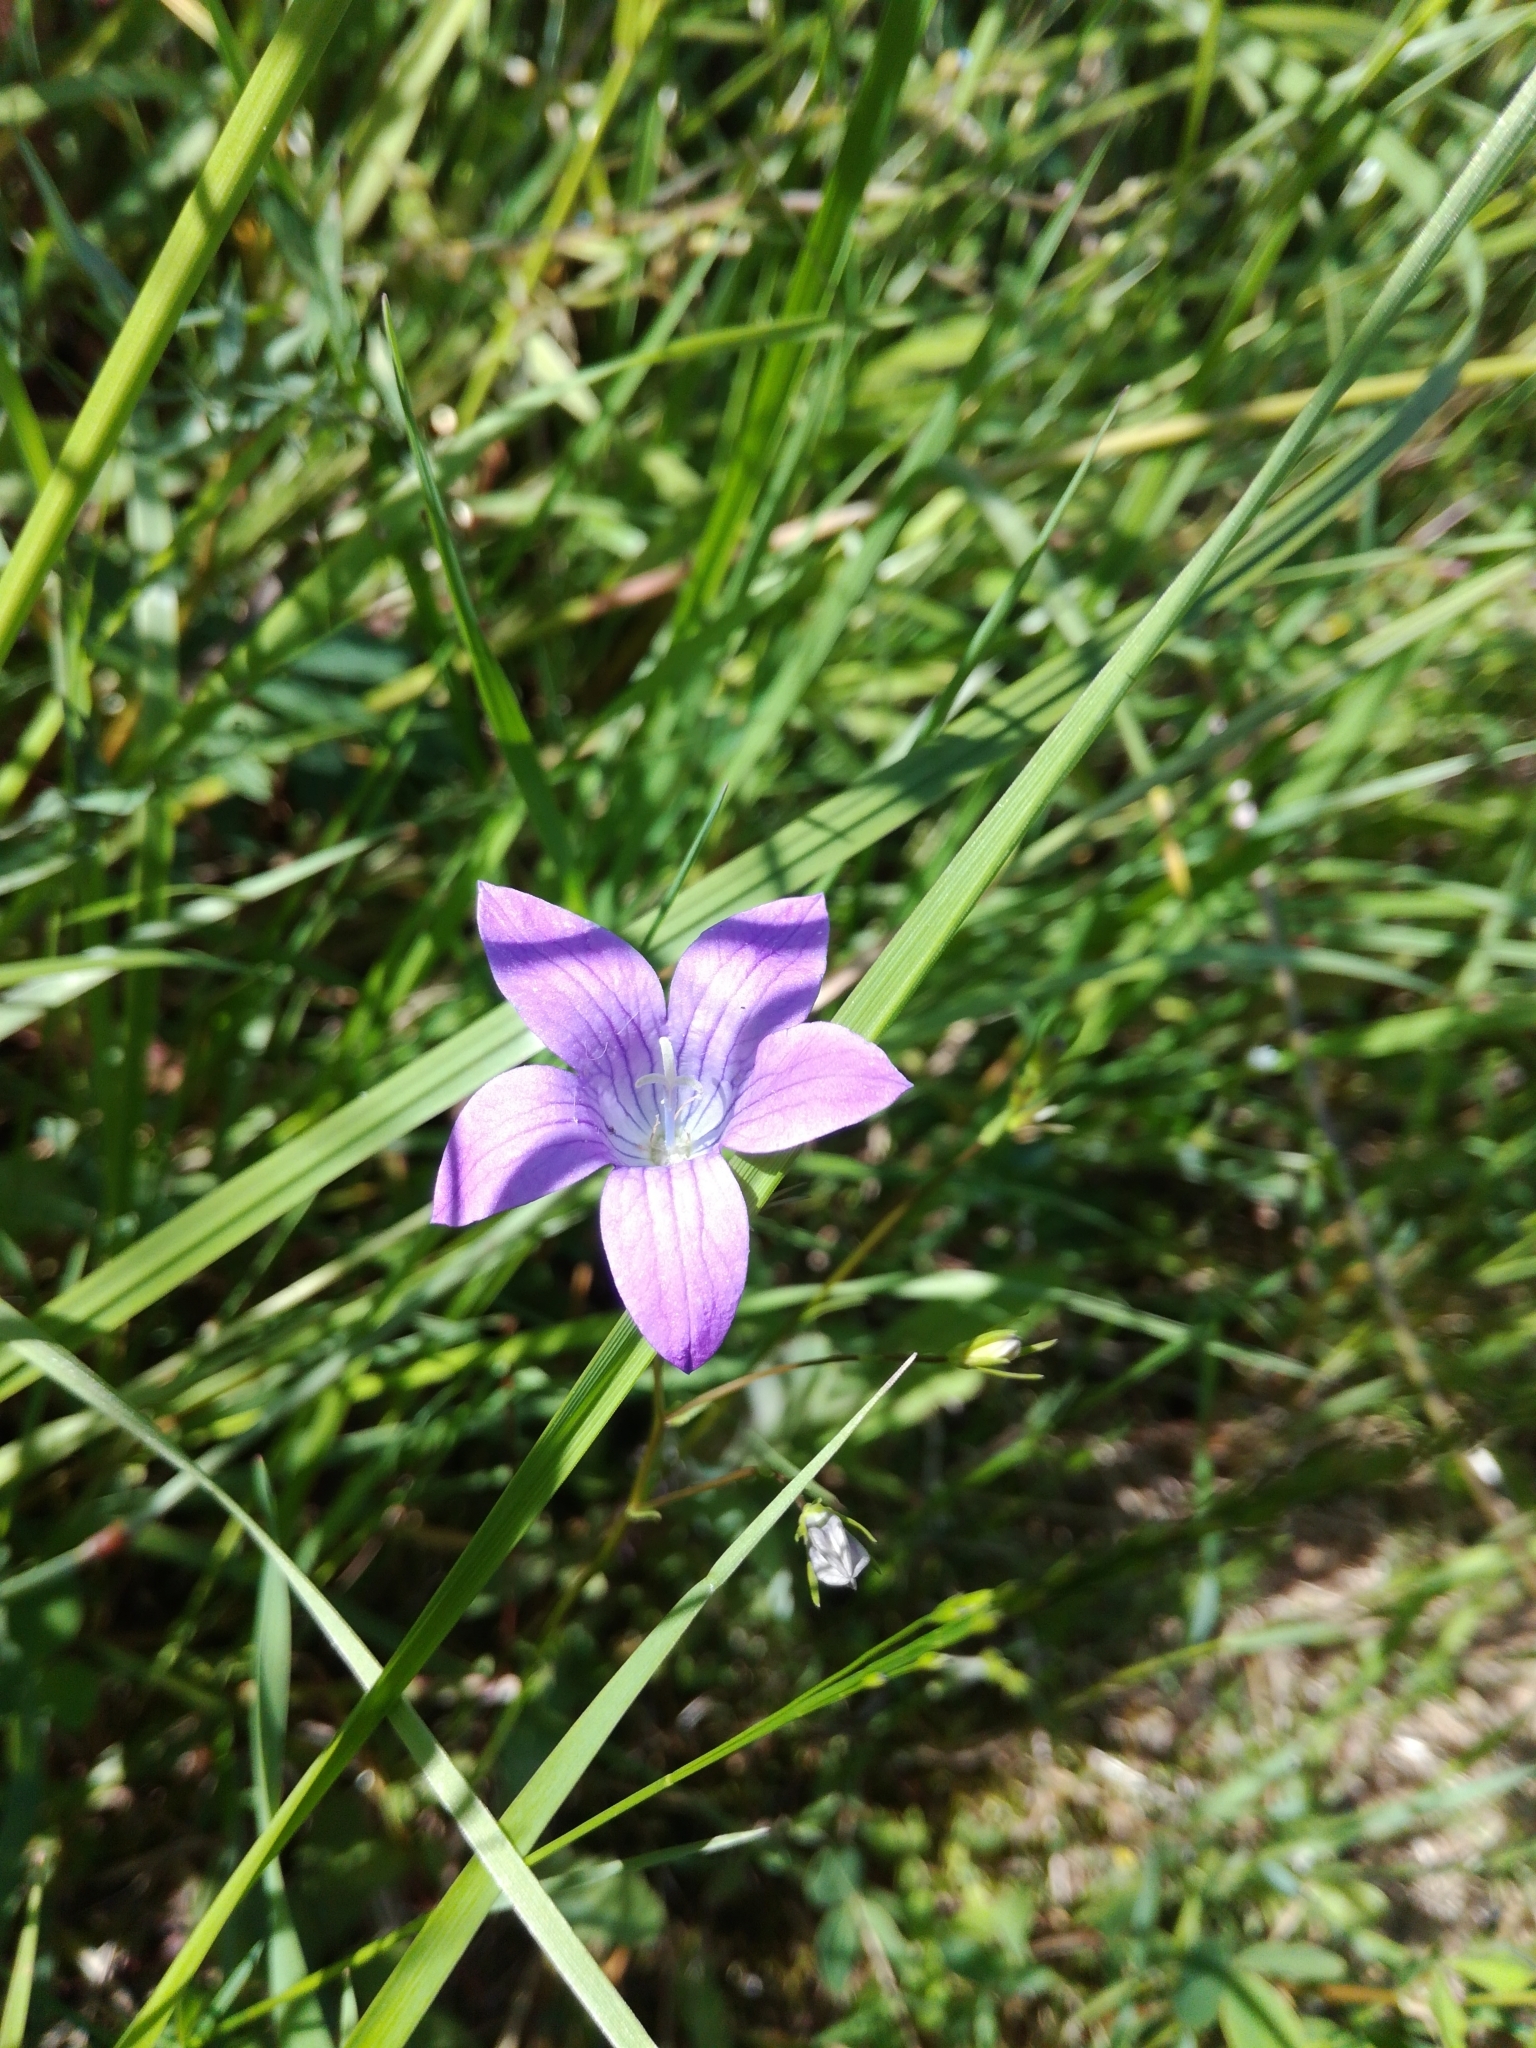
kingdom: Plantae
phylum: Tracheophyta
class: Magnoliopsida
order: Asterales
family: Campanulaceae
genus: Campanula
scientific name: Campanula patula
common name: Spreading bellflower
